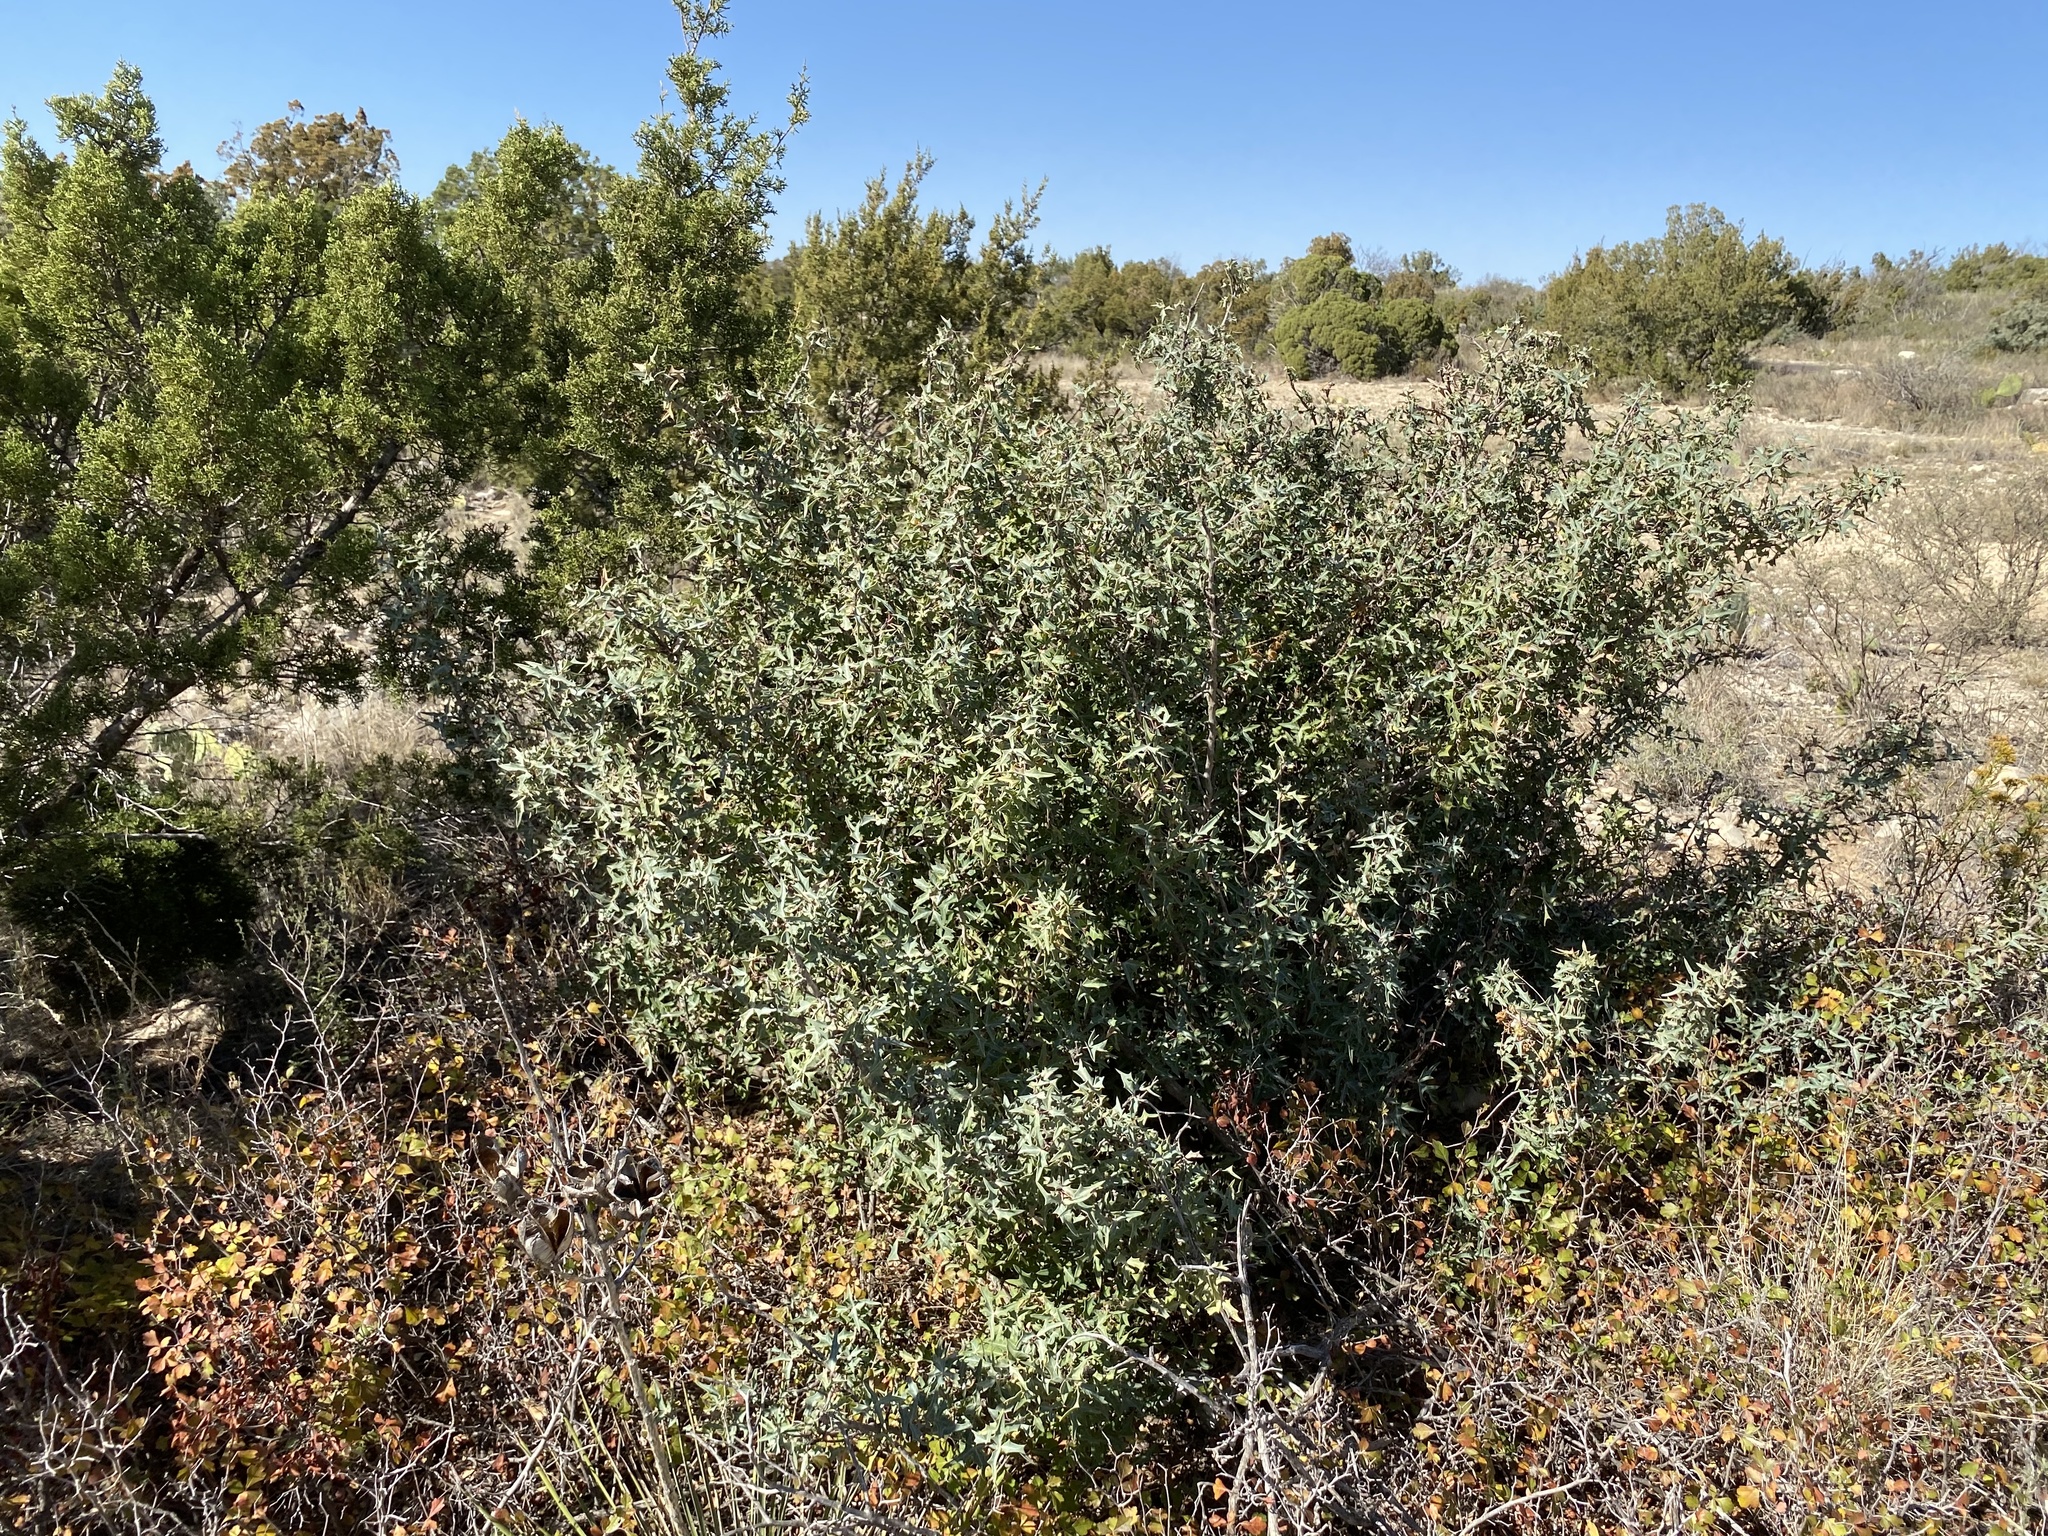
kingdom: Plantae
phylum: Tracheophyta
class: Magnoliopsida
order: Ranunculales
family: Berberidaceae
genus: Alloberberis
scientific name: Alloberberis trifoliolata
